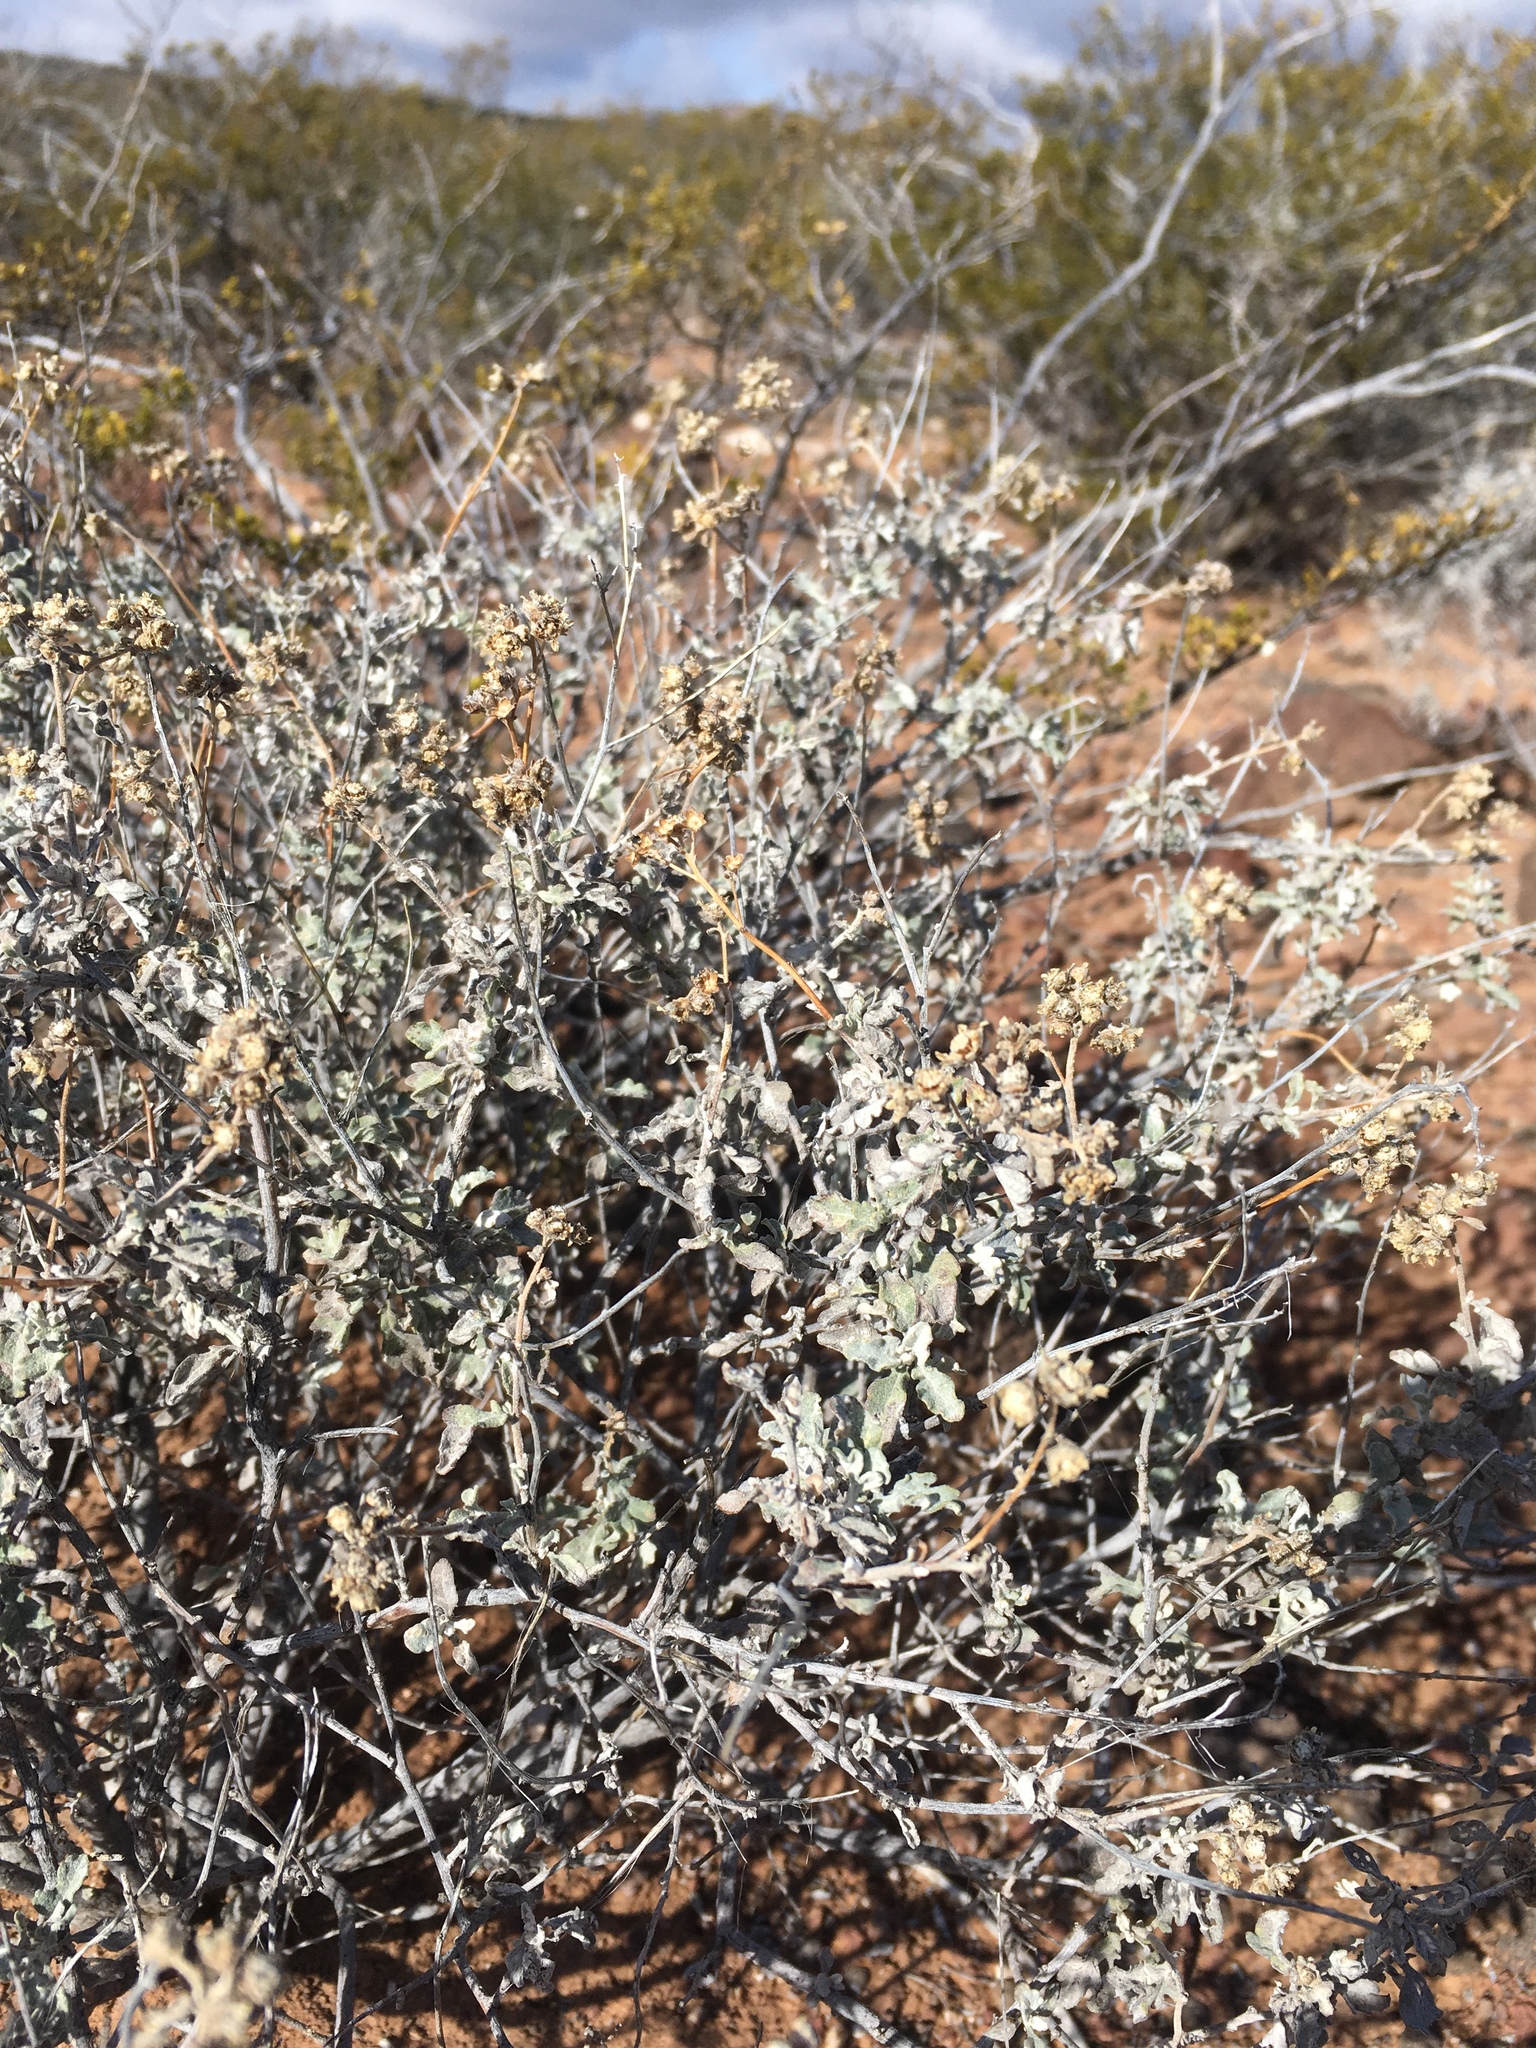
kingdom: Plantae
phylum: Tracheophyta
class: Magnoliopsida
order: Asterales
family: Asteraceae
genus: Parthenium
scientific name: Parthenium incanum
